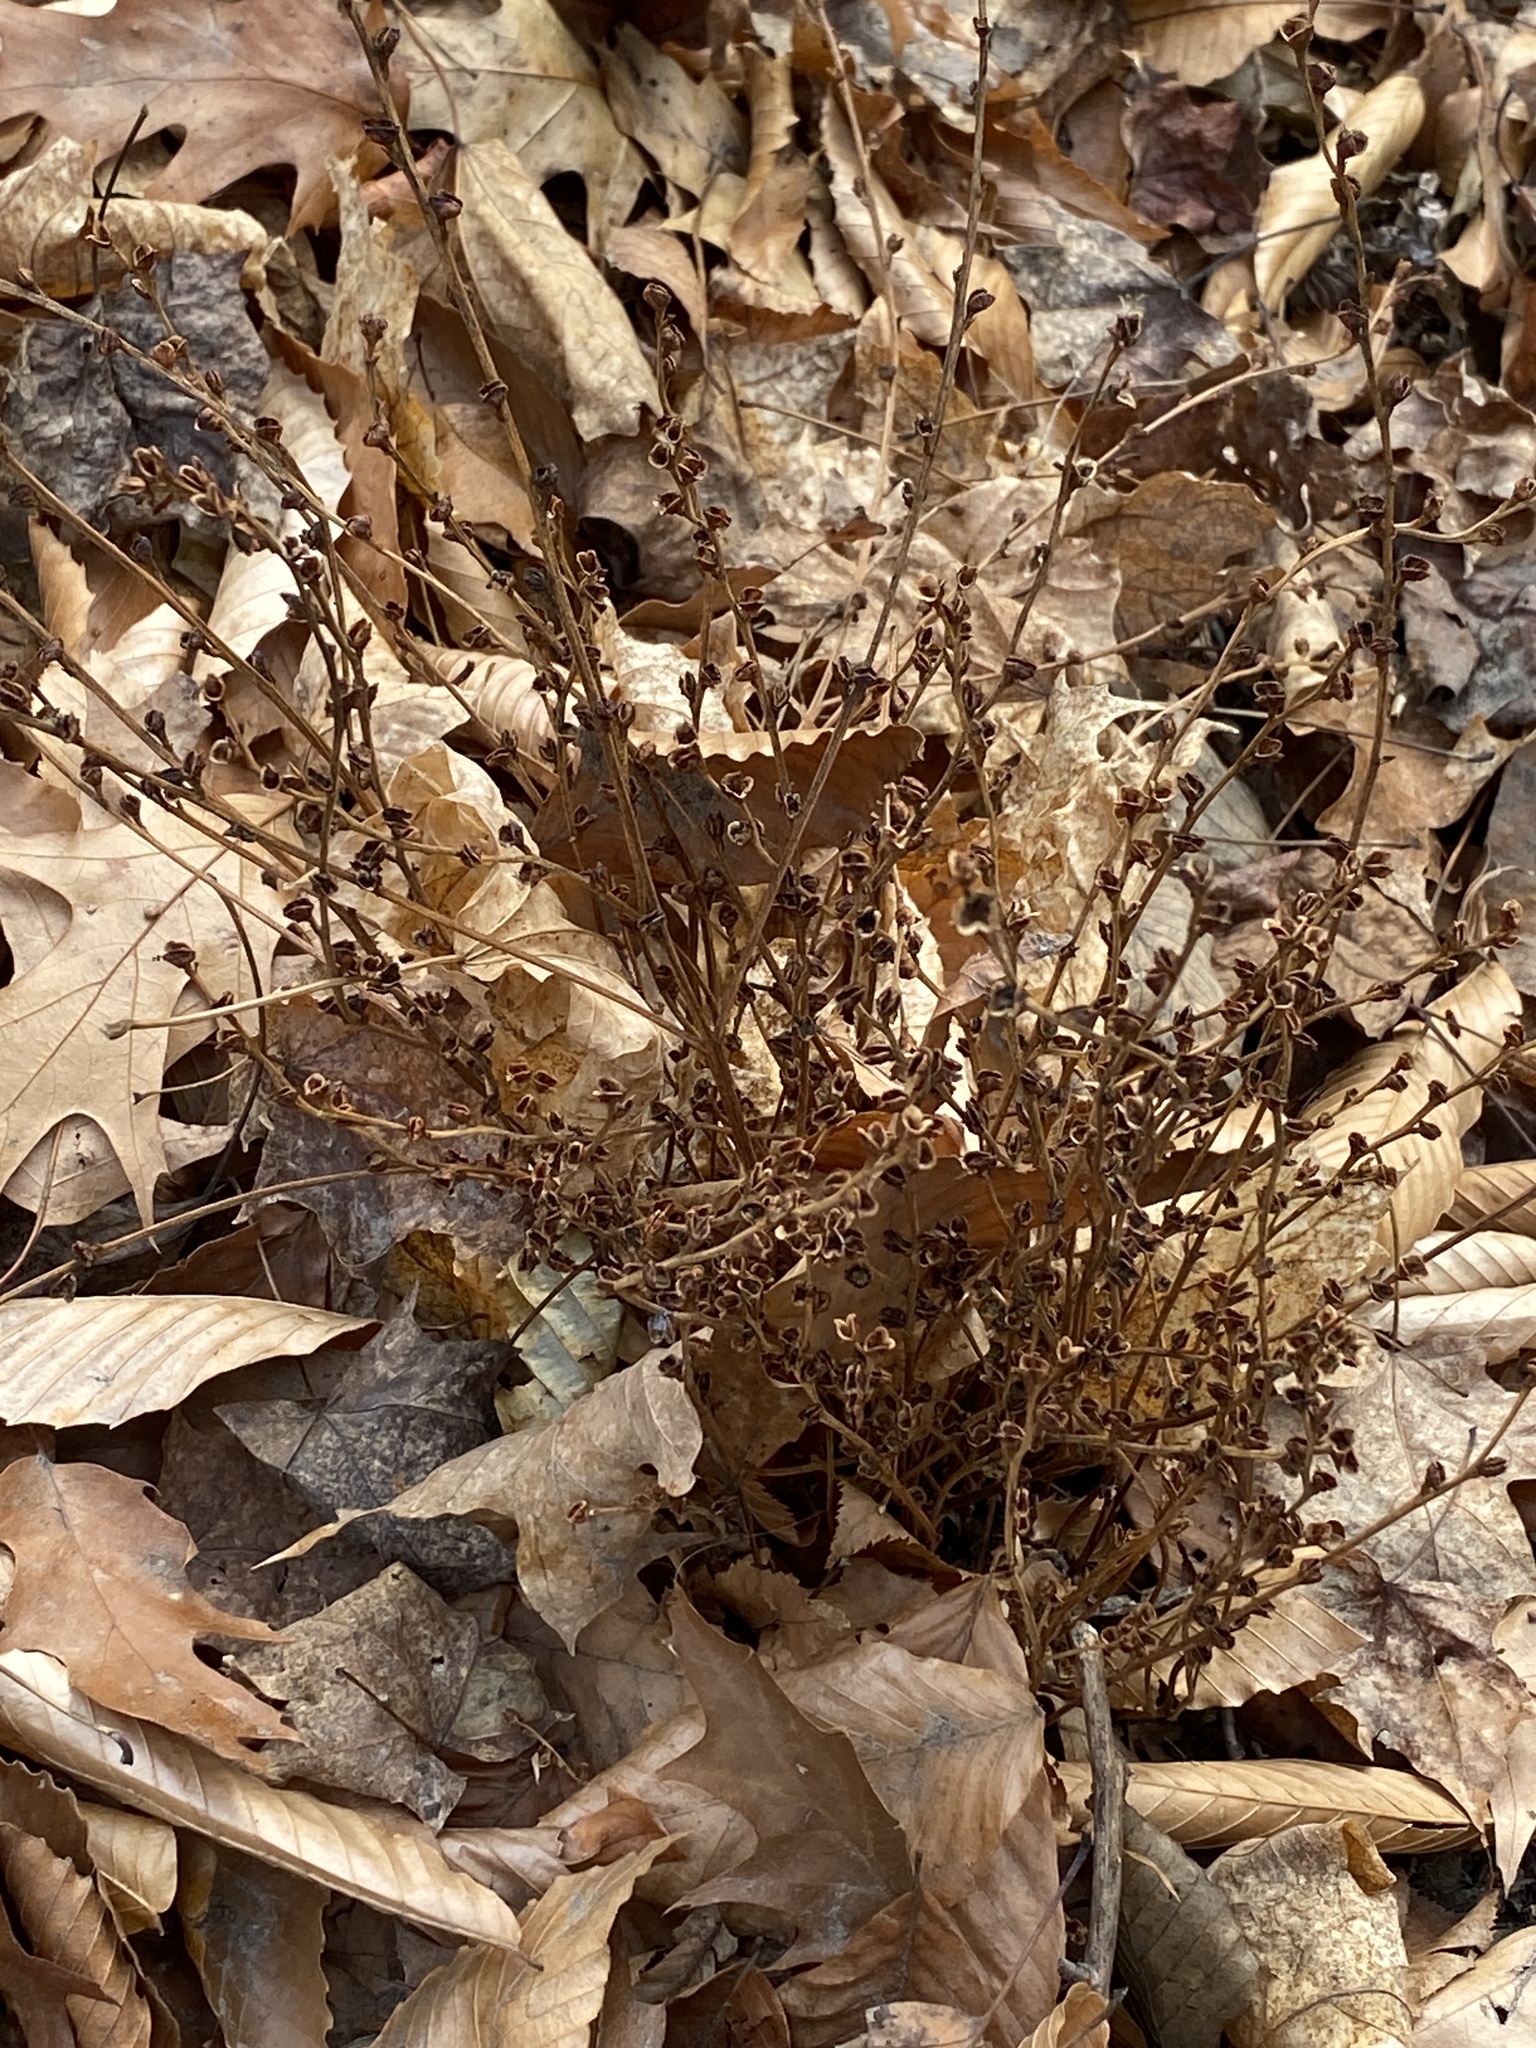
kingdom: Plantae
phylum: Tracheophyta
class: Magnoliopsida
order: Lamiales
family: Orobanchaceae
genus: Epifagus
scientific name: Epifagus virginiana
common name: Beechdrops
